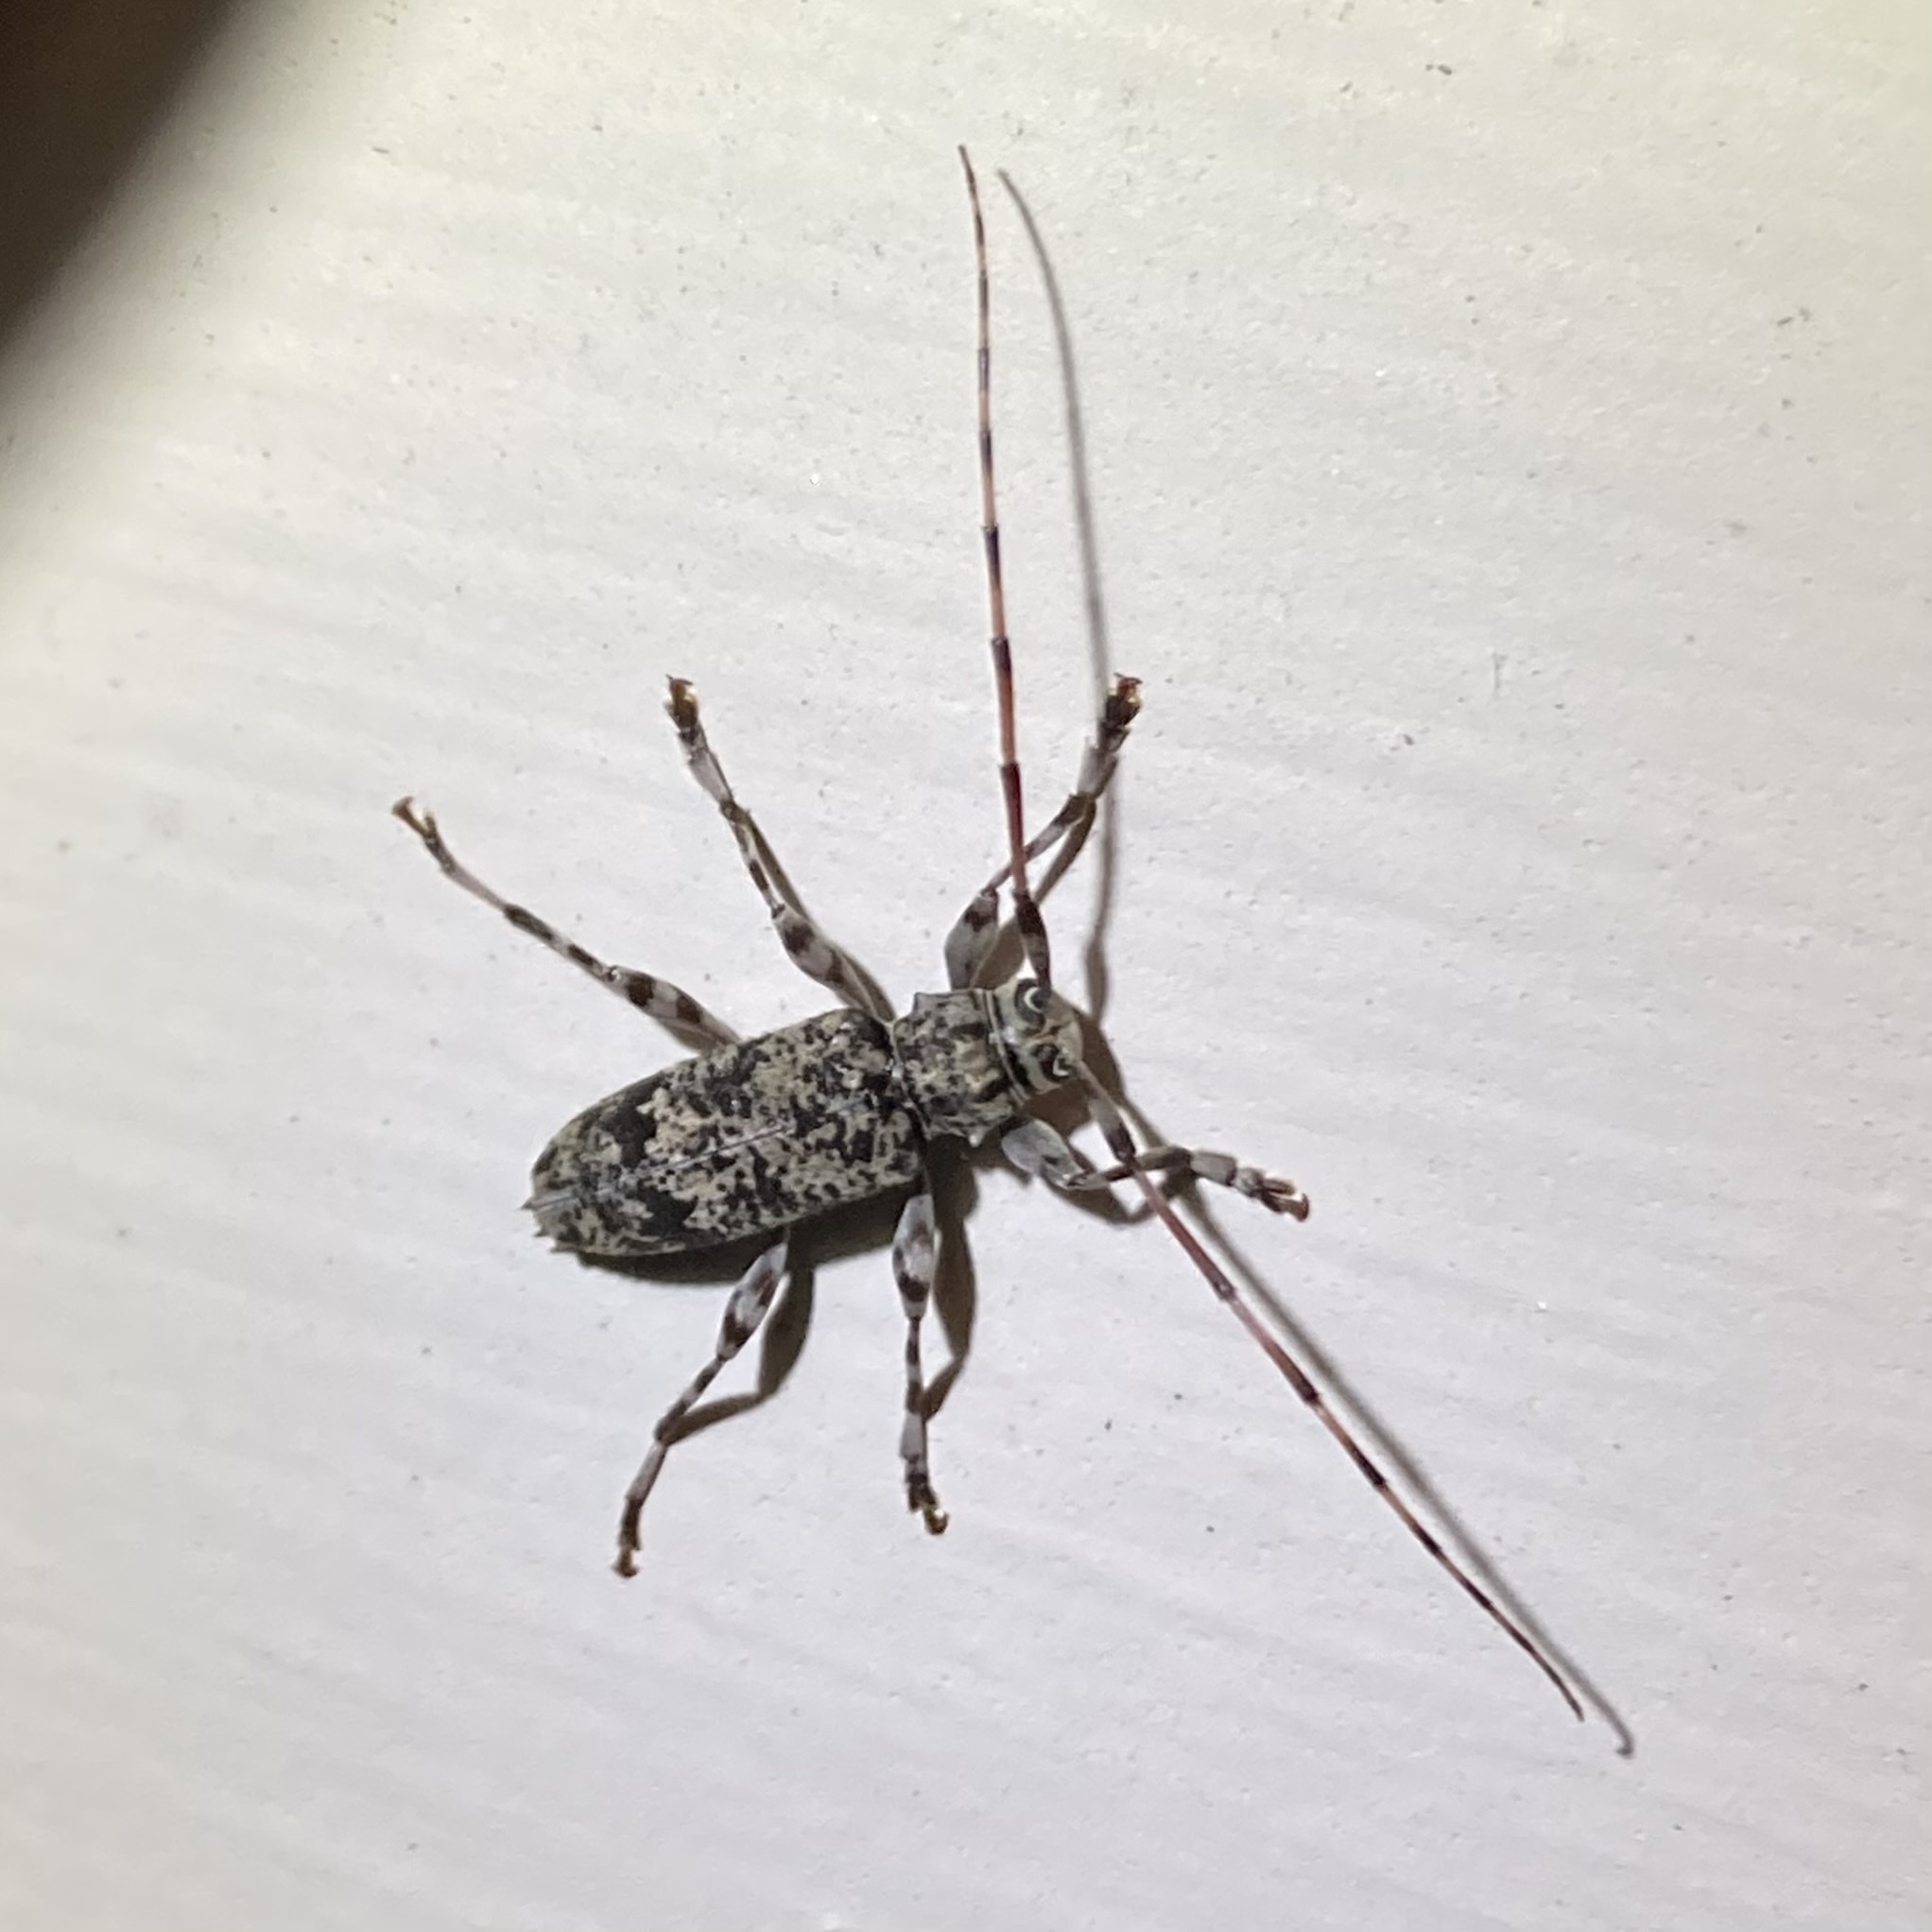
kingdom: Animalia
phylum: Arthropoda
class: Insecta
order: Coleoptera
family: Cerambycidae
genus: Graphisurus
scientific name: Graphisurus fasciatus
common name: Banded graphisurus
